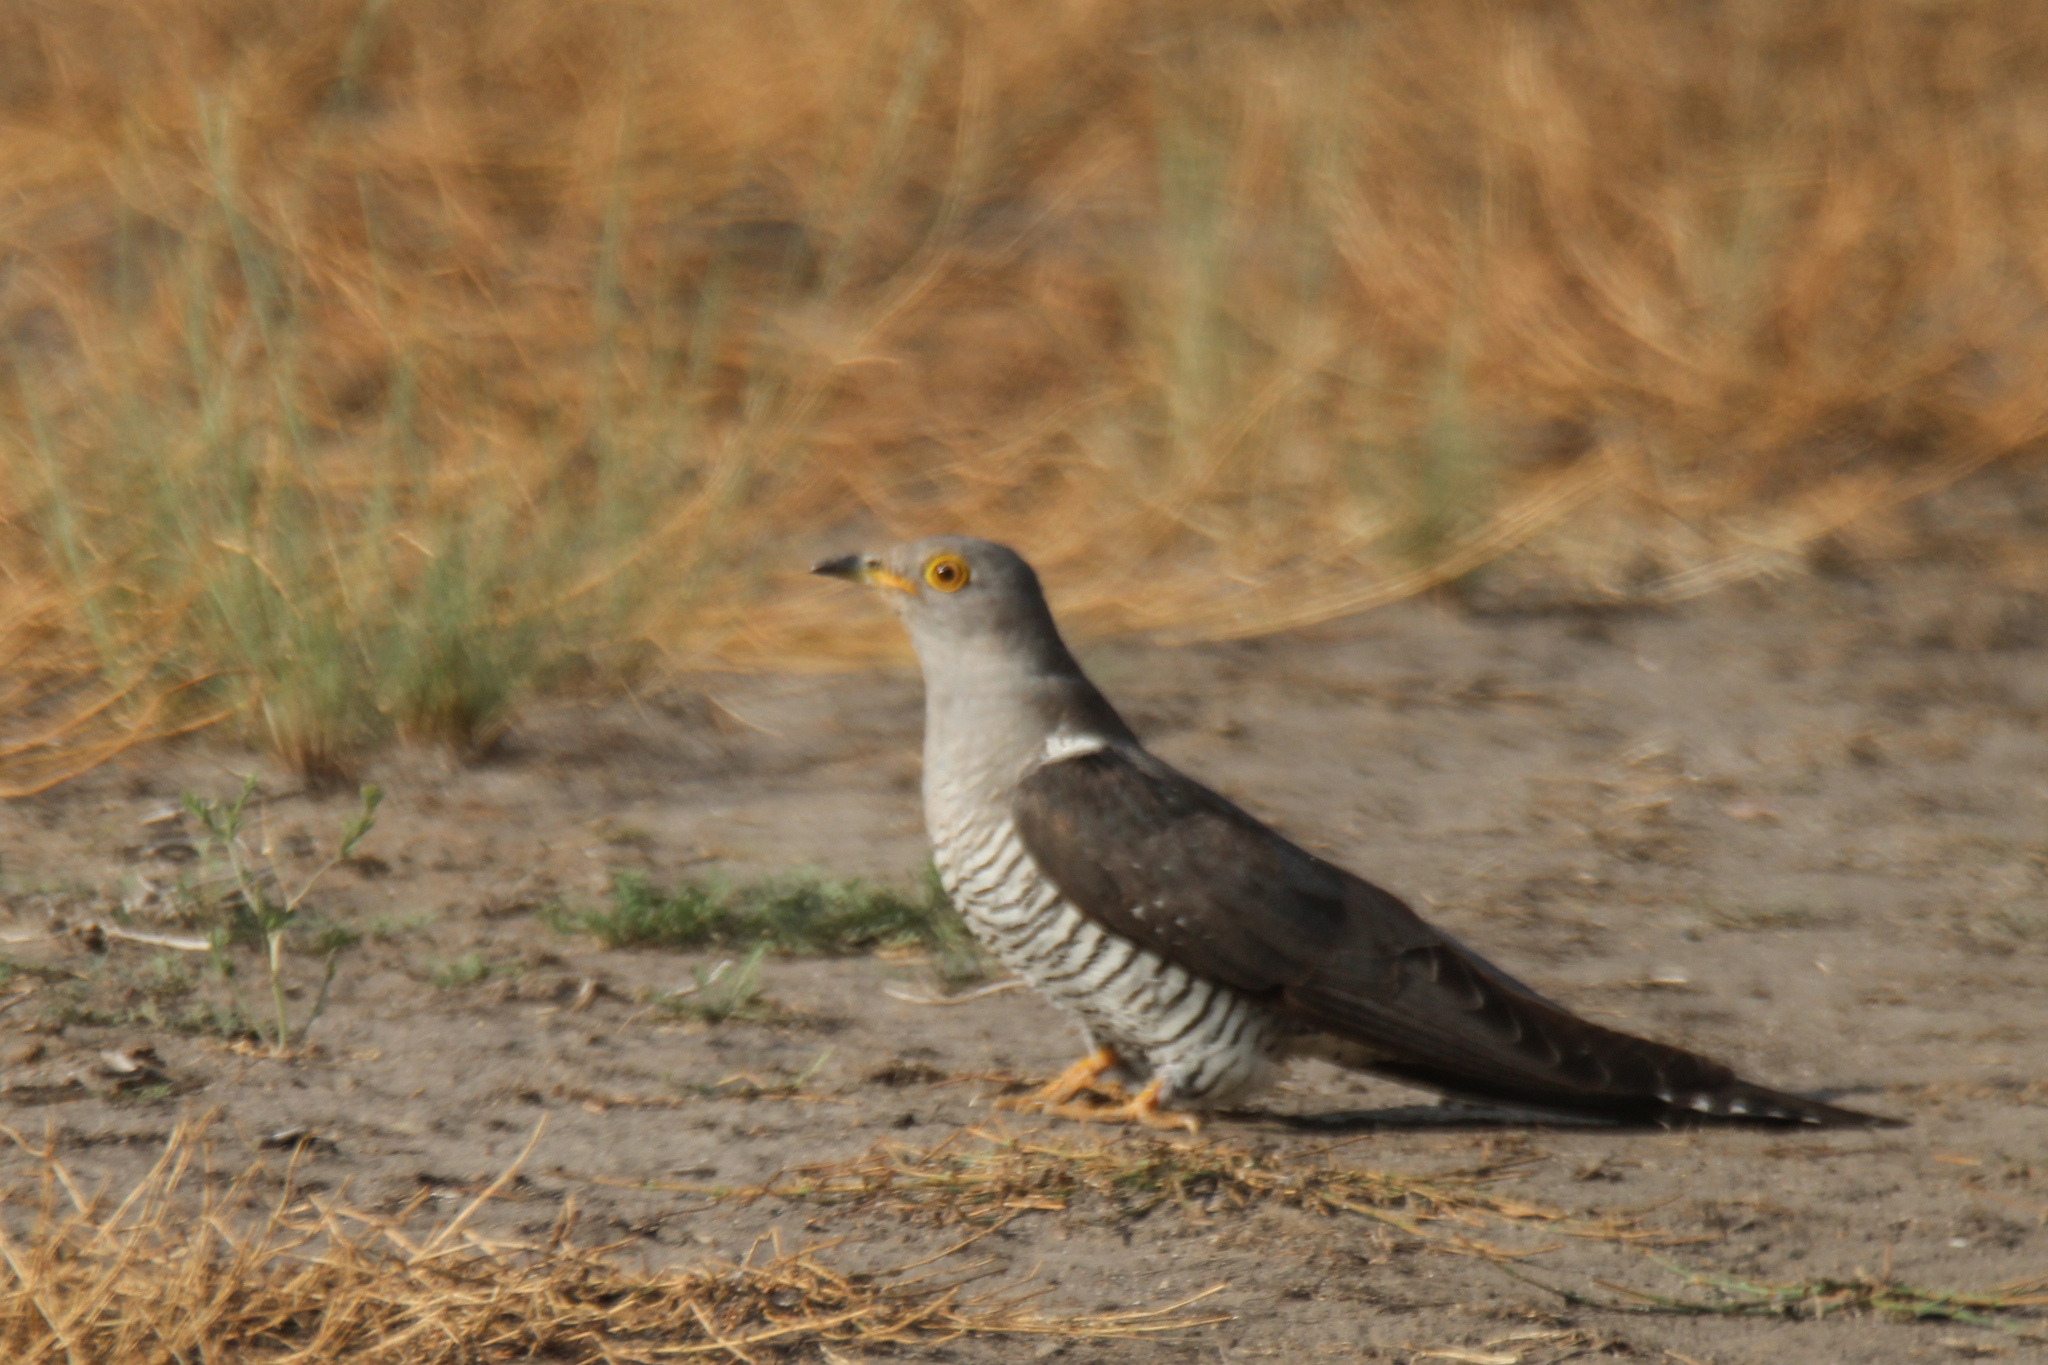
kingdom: Animalia
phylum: Chordata
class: Aves
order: Cuculiformes
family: Cuculidae
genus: Cuculus
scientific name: Cuculus canorus
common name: Common cuckoo
